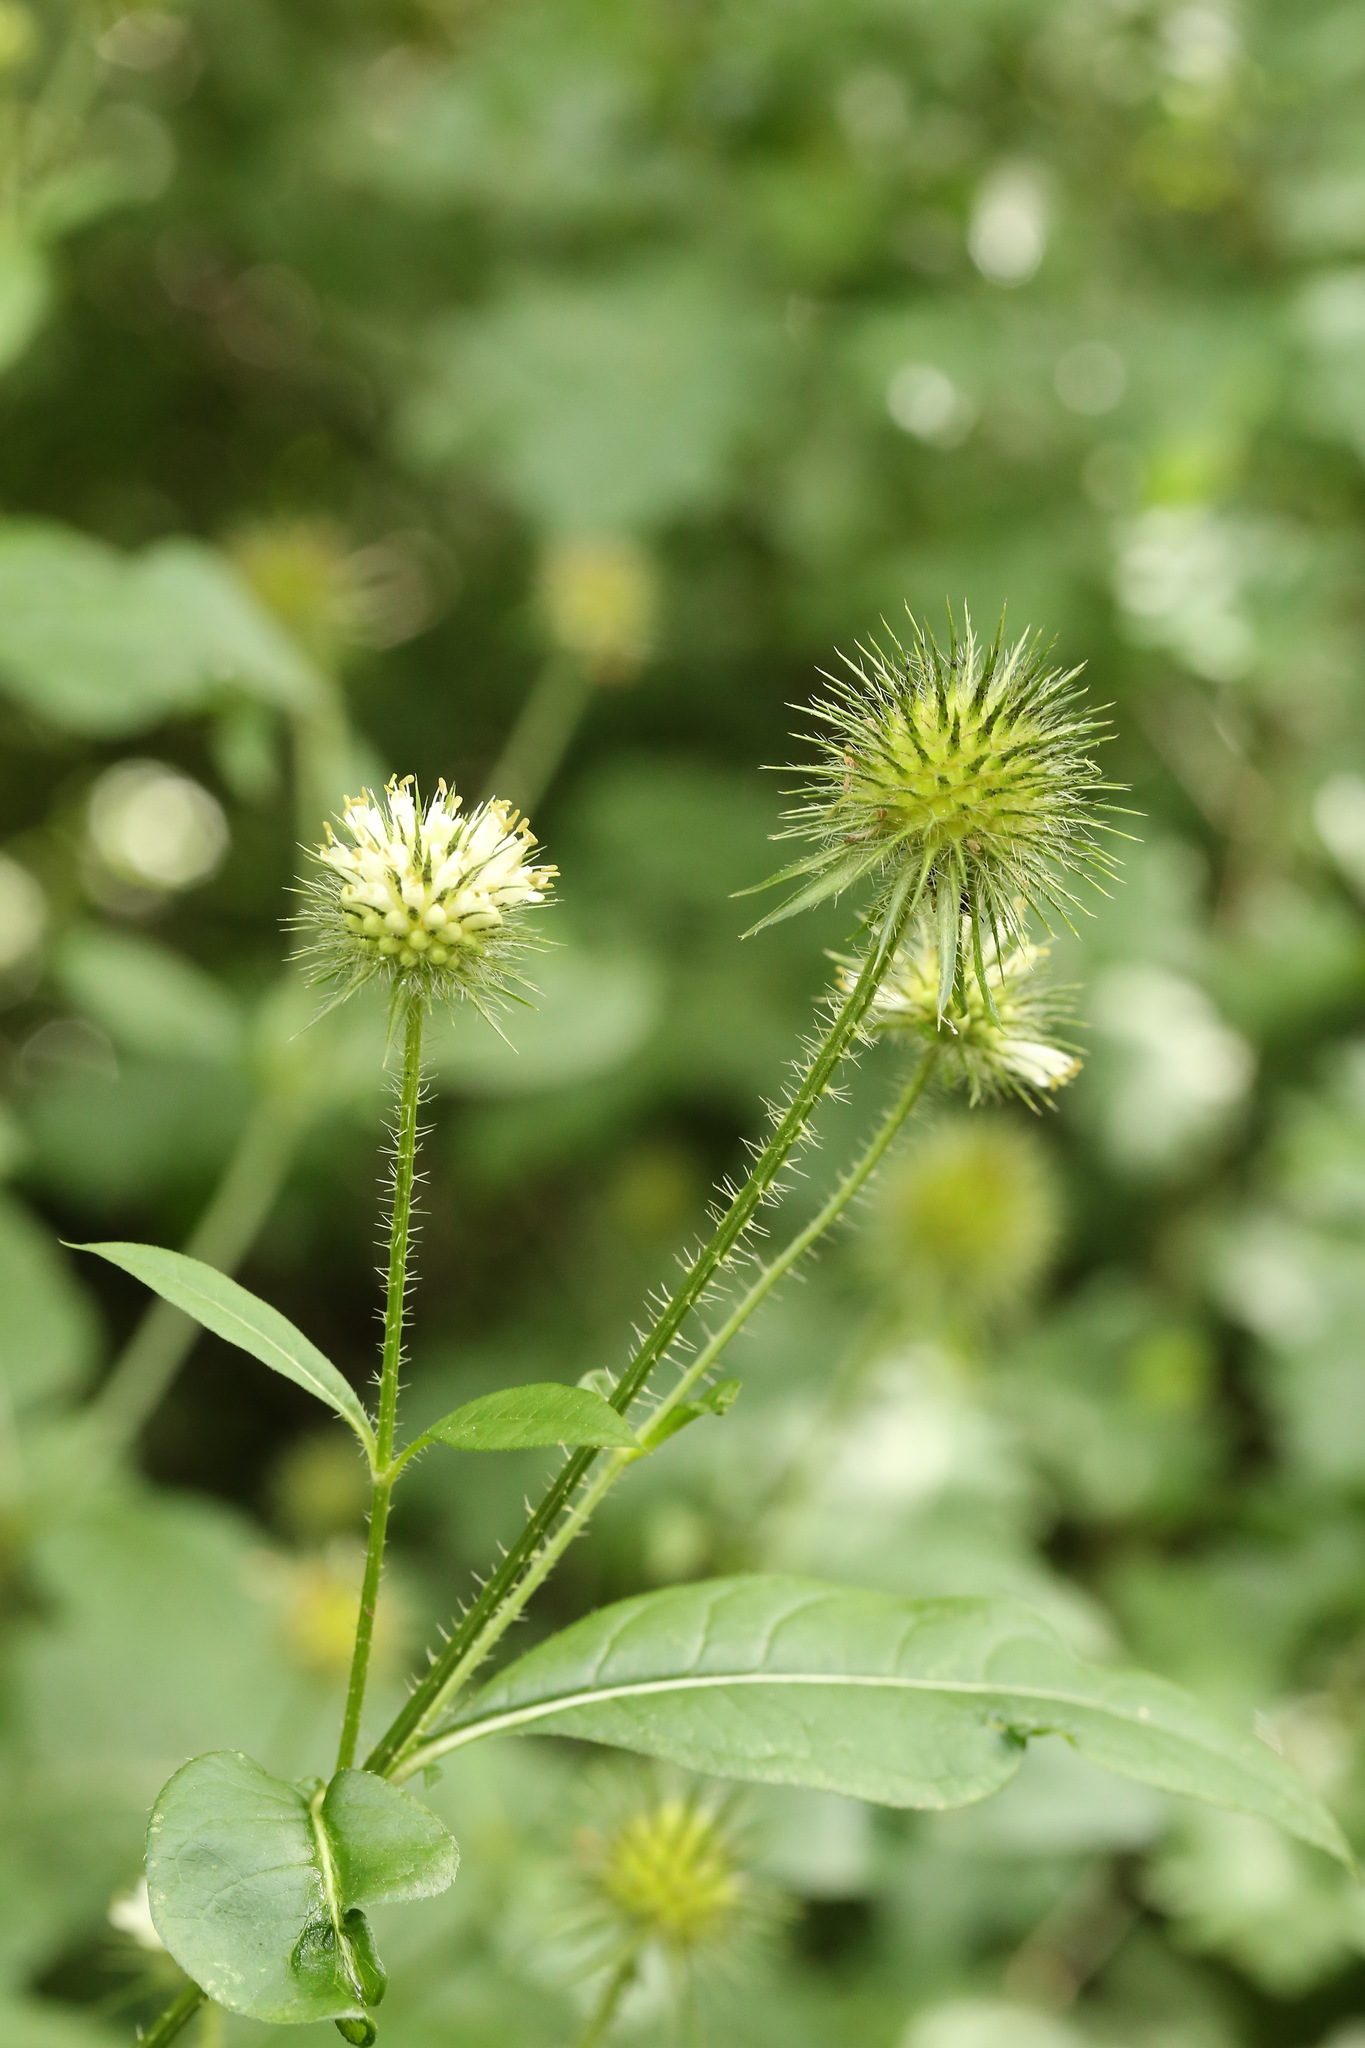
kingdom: Plantae
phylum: Tracheophyta
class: Magnoliopsida
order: Dipsacales
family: Caprifoliaceae
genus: Dipsacus
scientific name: Dipsacus strigosus
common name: Yellow-flowered teasel
